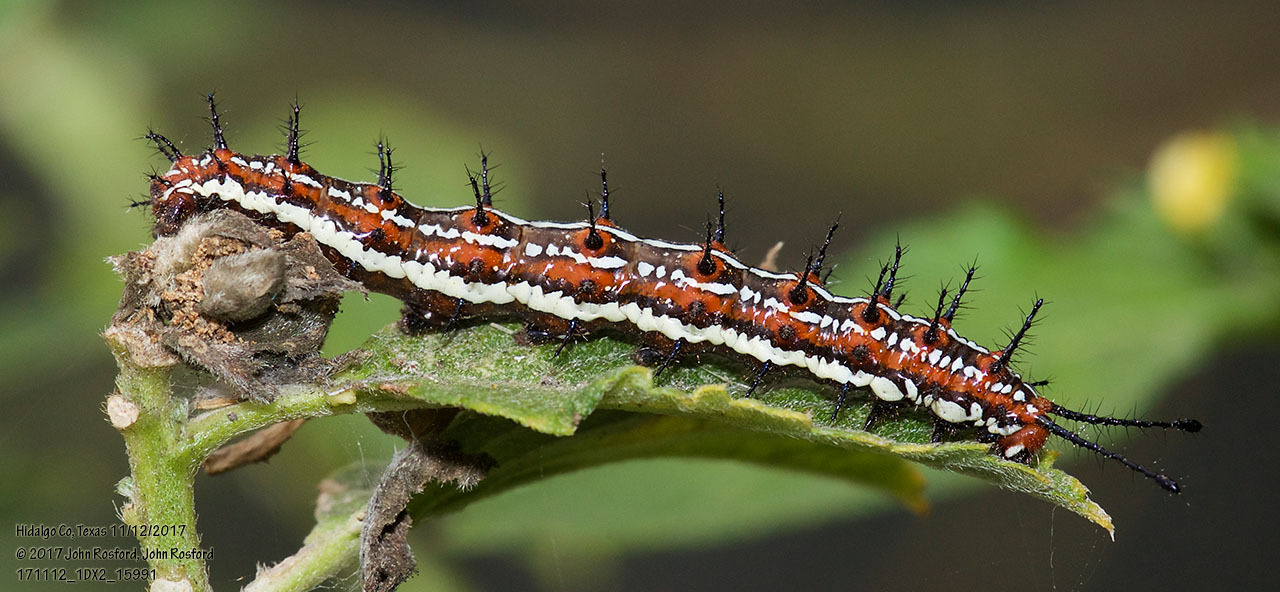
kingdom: Animalia
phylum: Arthropoda
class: Insecta
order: Lepidoptera
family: Nymphalidae
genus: Euptoieta
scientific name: Euptoieta hegesia
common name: Mexican fritillary
